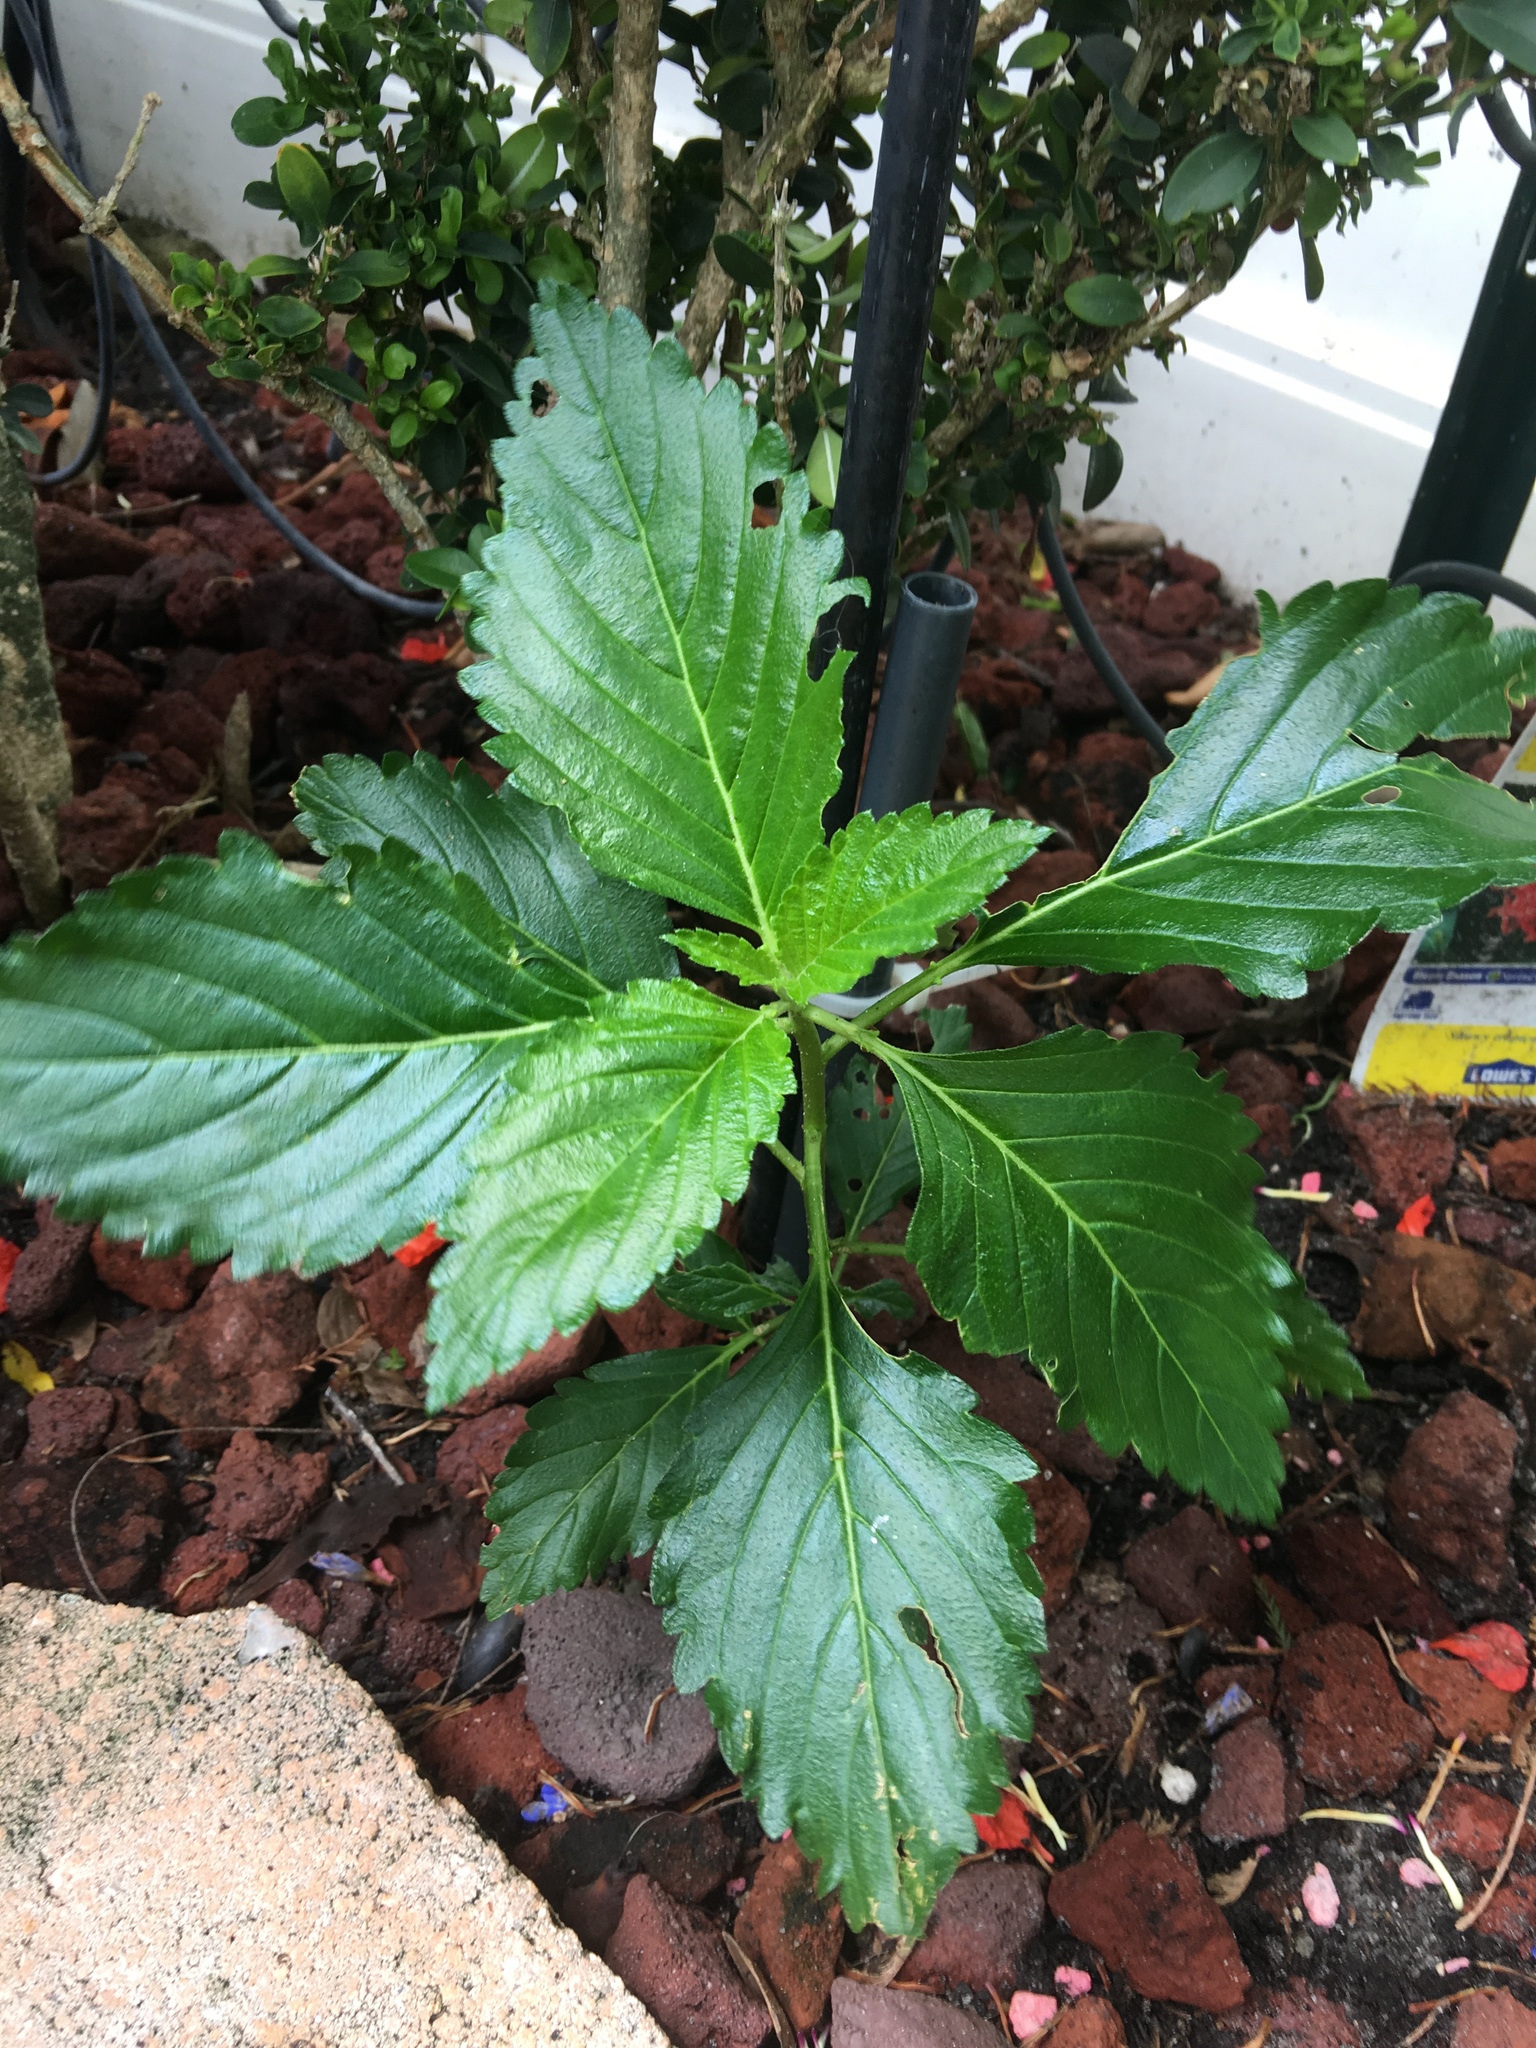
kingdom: Plantae
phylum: Tracheophyta
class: Magnoliopsida
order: Malpighiales
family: Turneraceae
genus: Turnera
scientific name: Turnera ulmifolia
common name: Ramgoat dashalong
